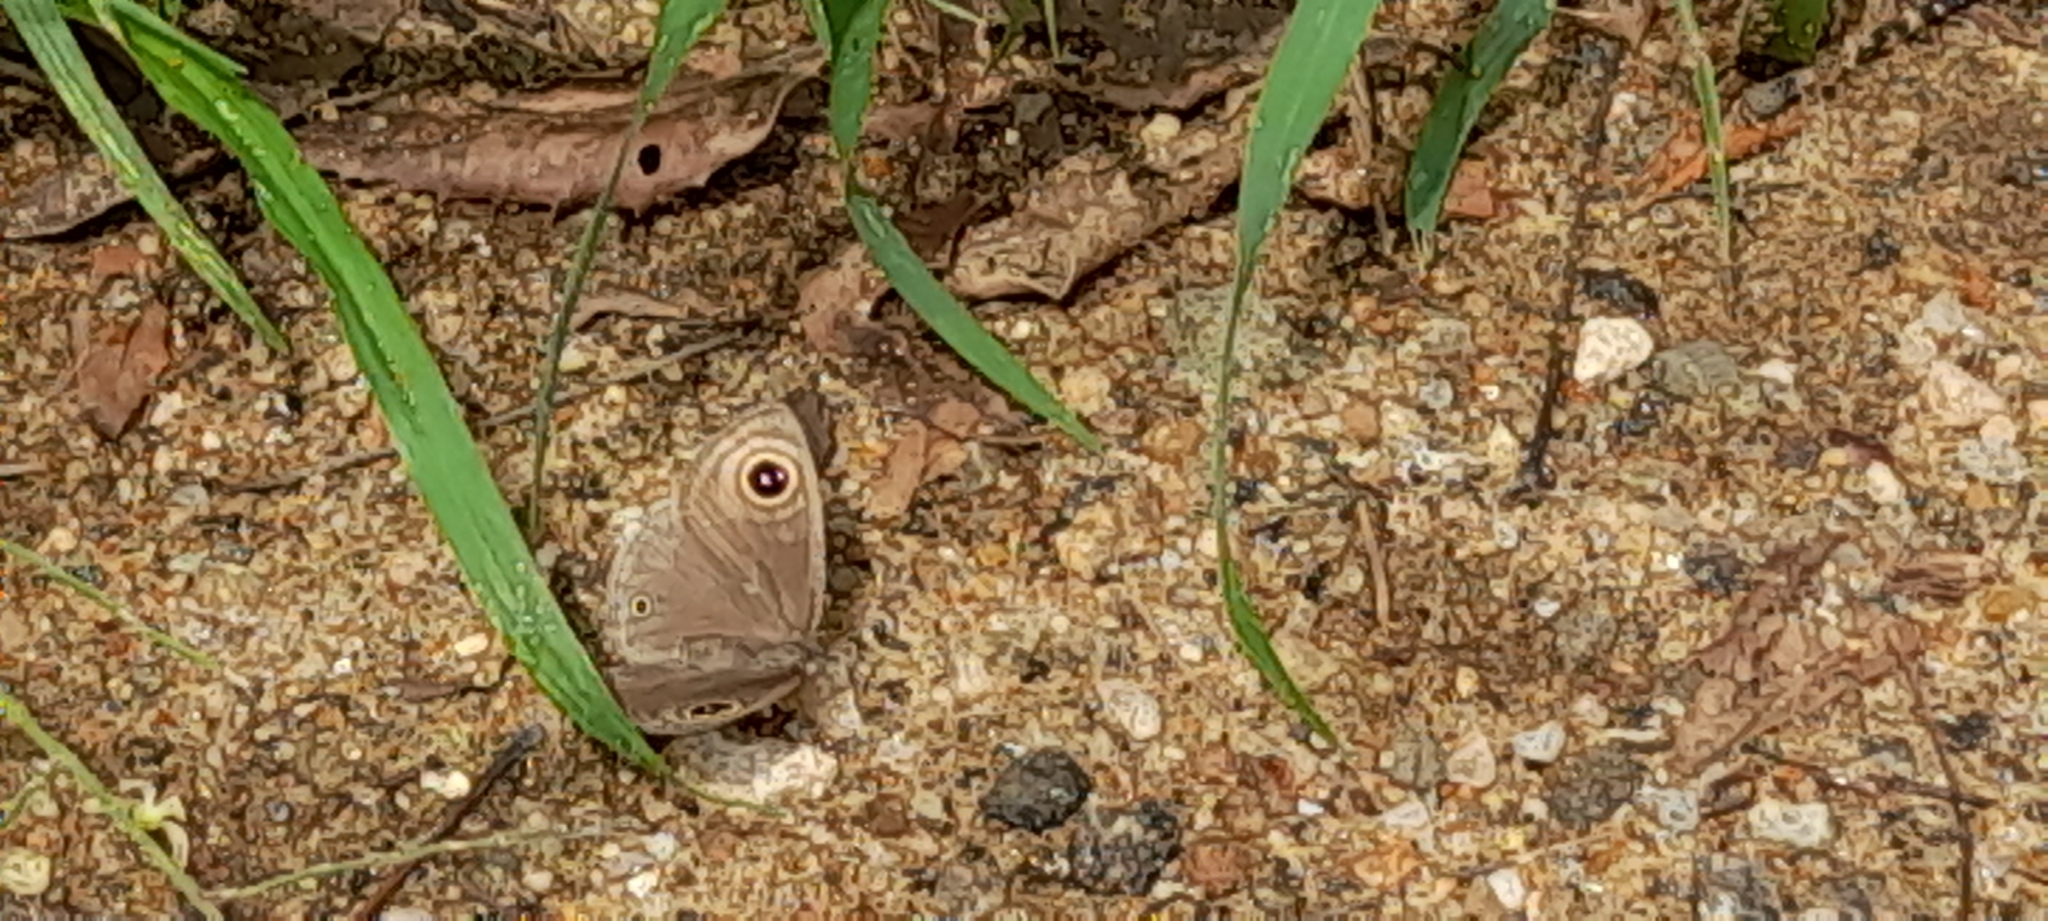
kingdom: Animalia
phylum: Arthropoda
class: Insecta
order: Lepidoptera
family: Nymphalidae
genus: Ypthima
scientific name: Ypthima asterope
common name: African ringlet
